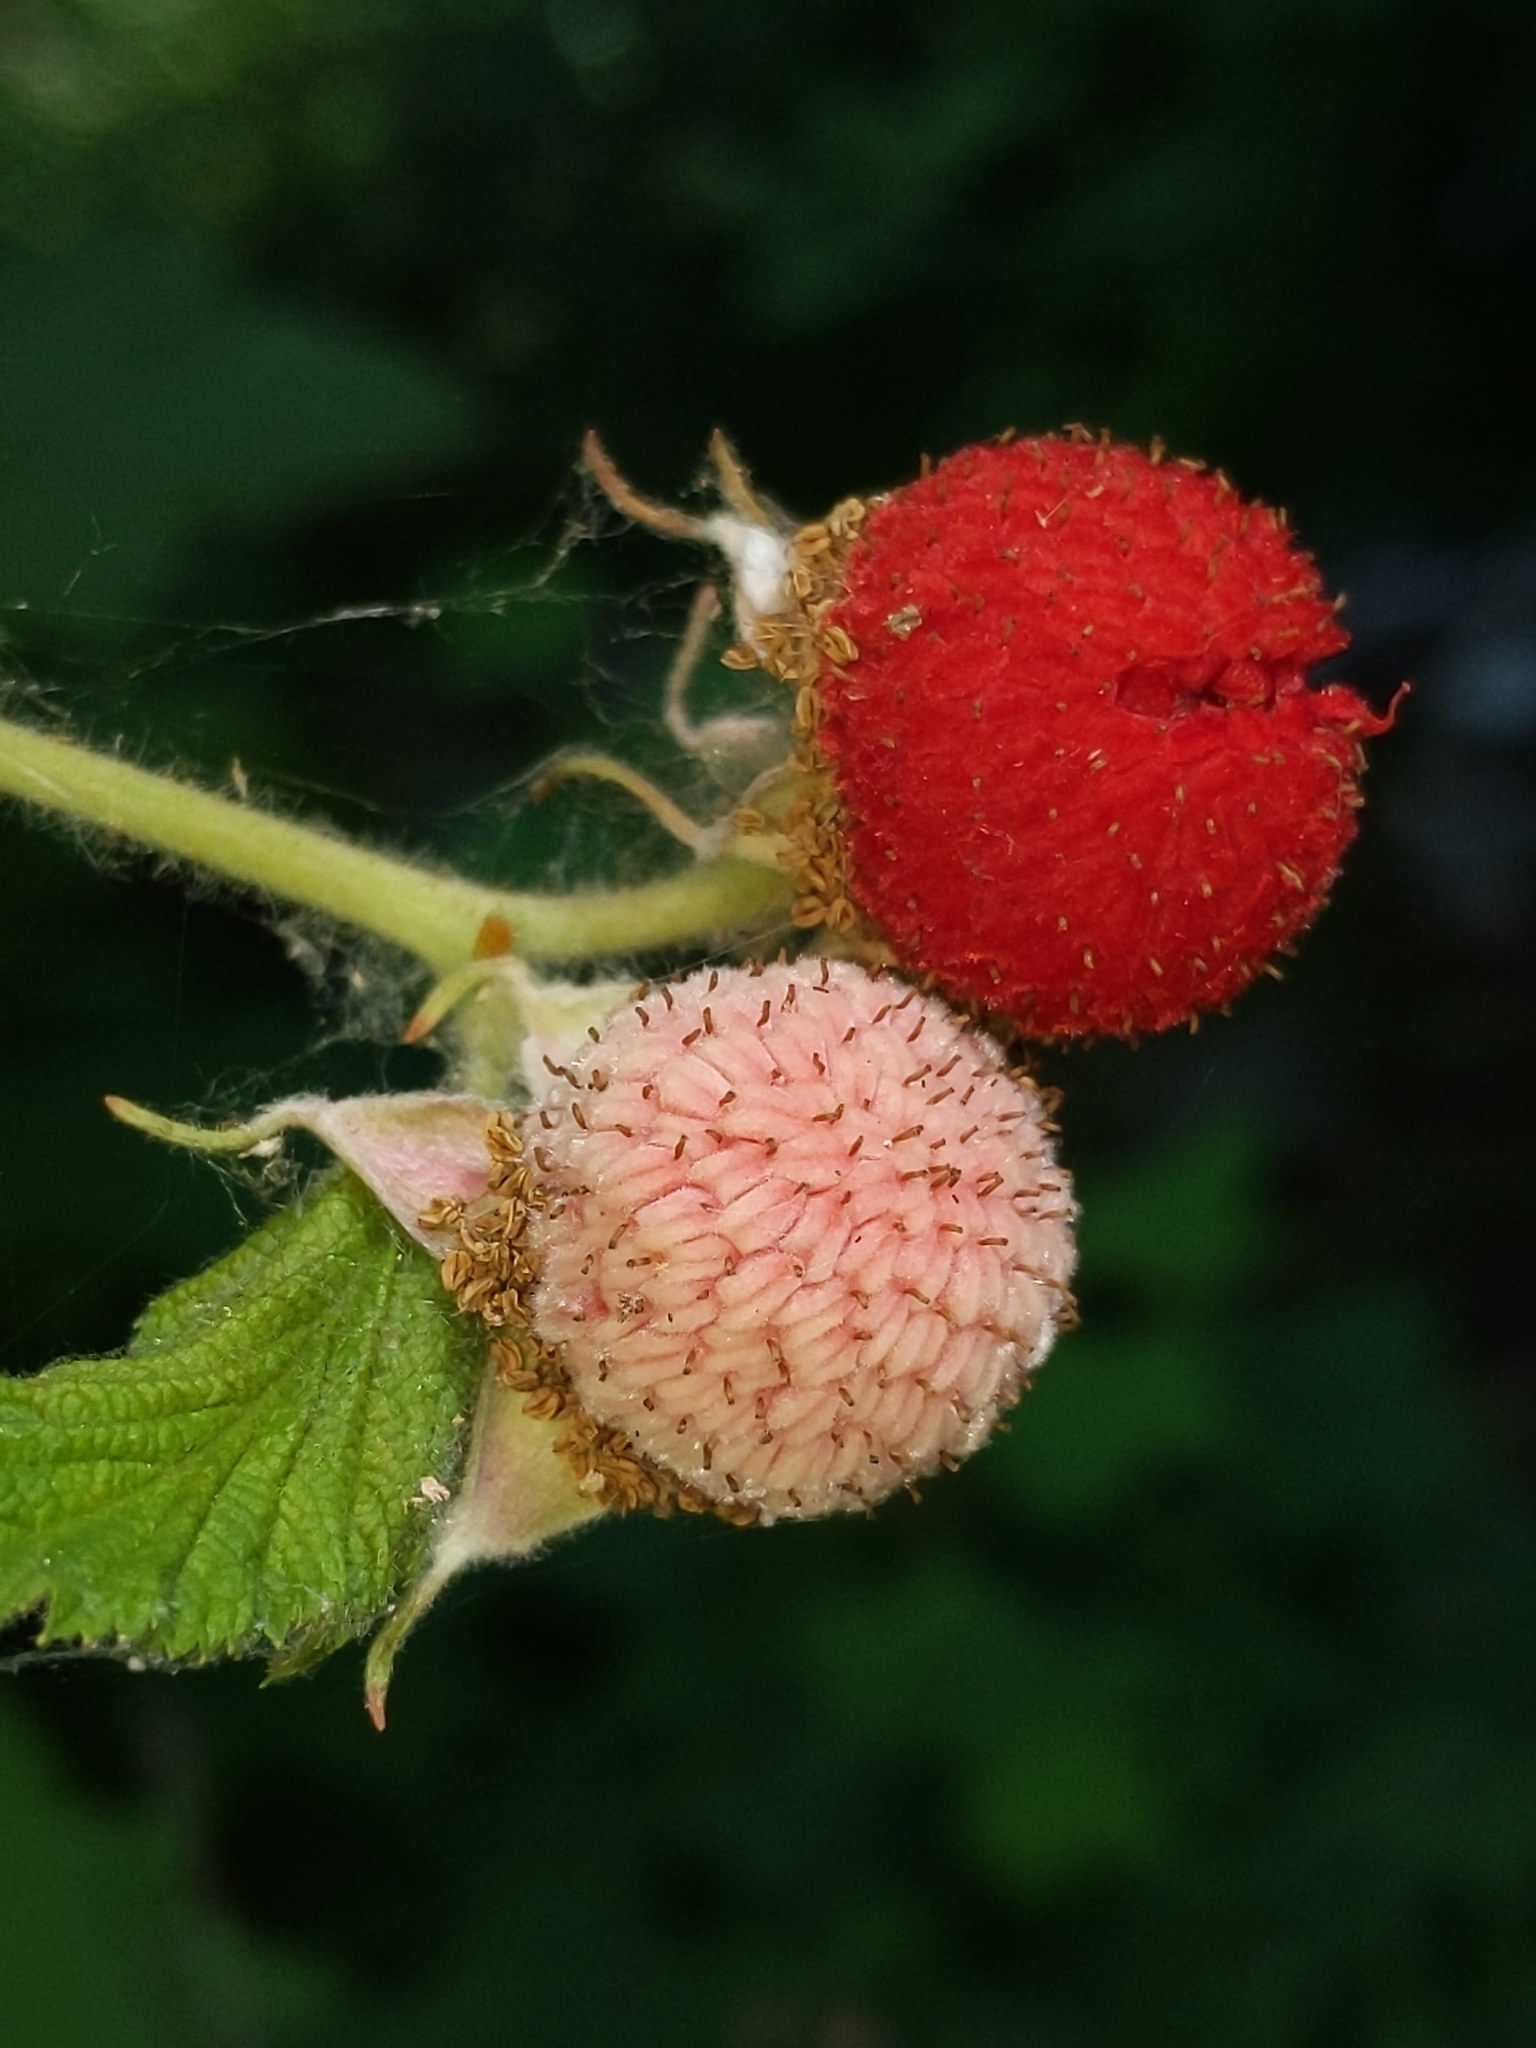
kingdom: Plantae
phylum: Tracheophyta
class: Magnoliopsida
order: Rosales
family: Rosaceae
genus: Rubus
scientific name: Rubus parviflorus
